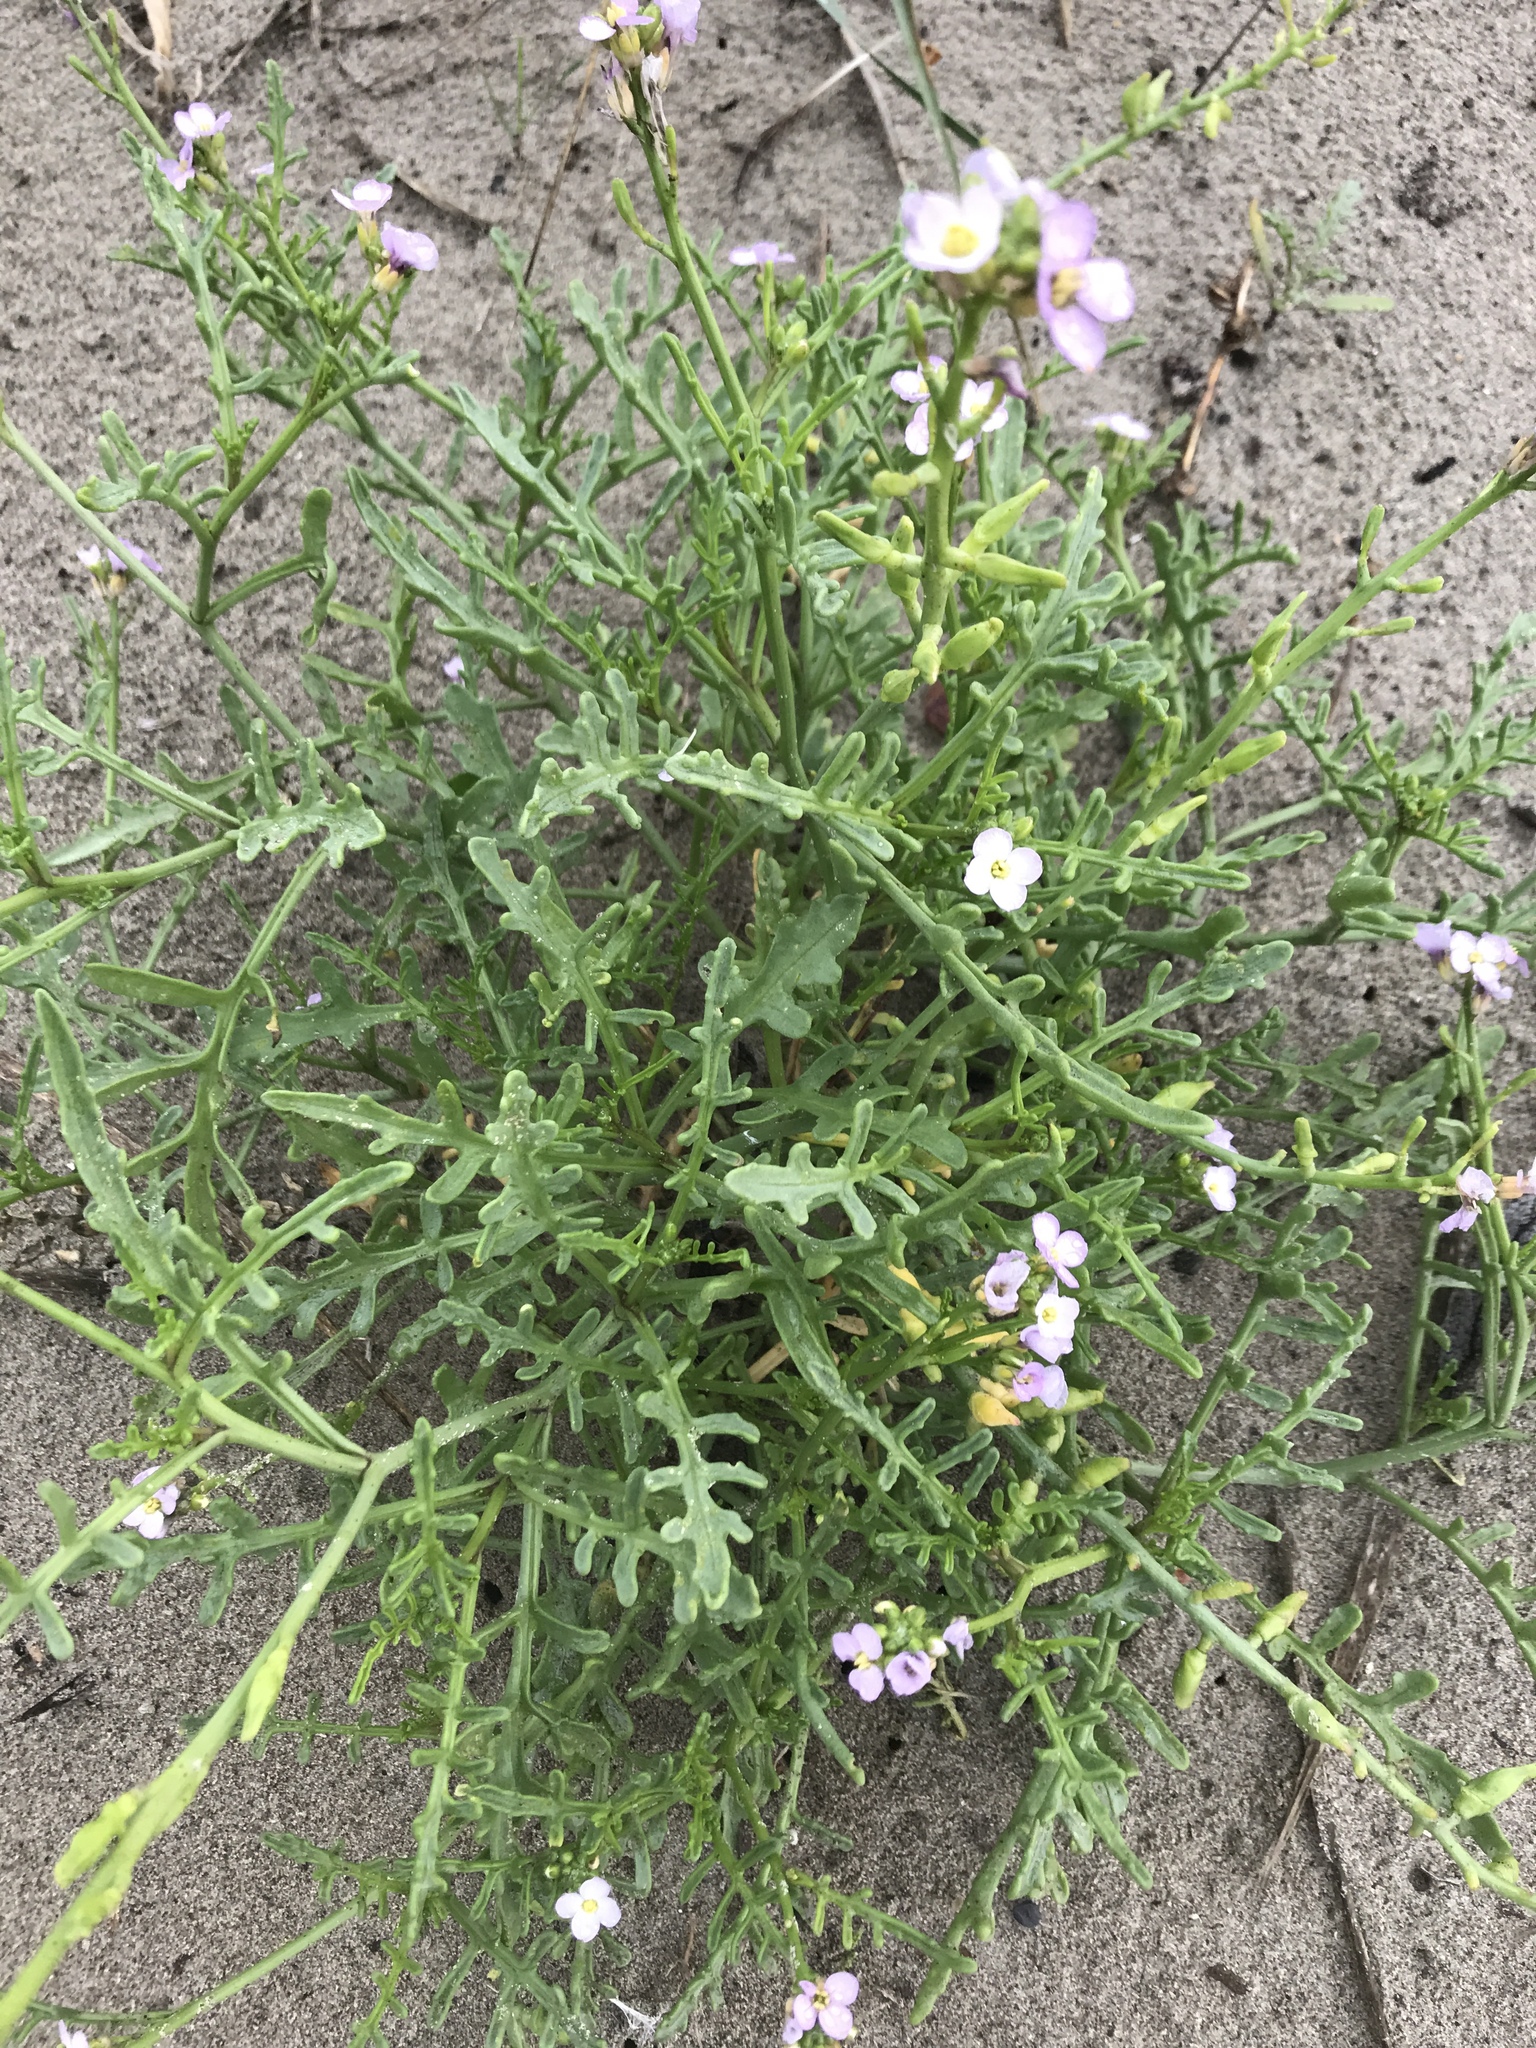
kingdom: Plantae
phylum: Tracheophyta
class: Magnoliopsida
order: Brassicales
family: Brassicaceae
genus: Cakile
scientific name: Cakile maritima
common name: Sea rocket
